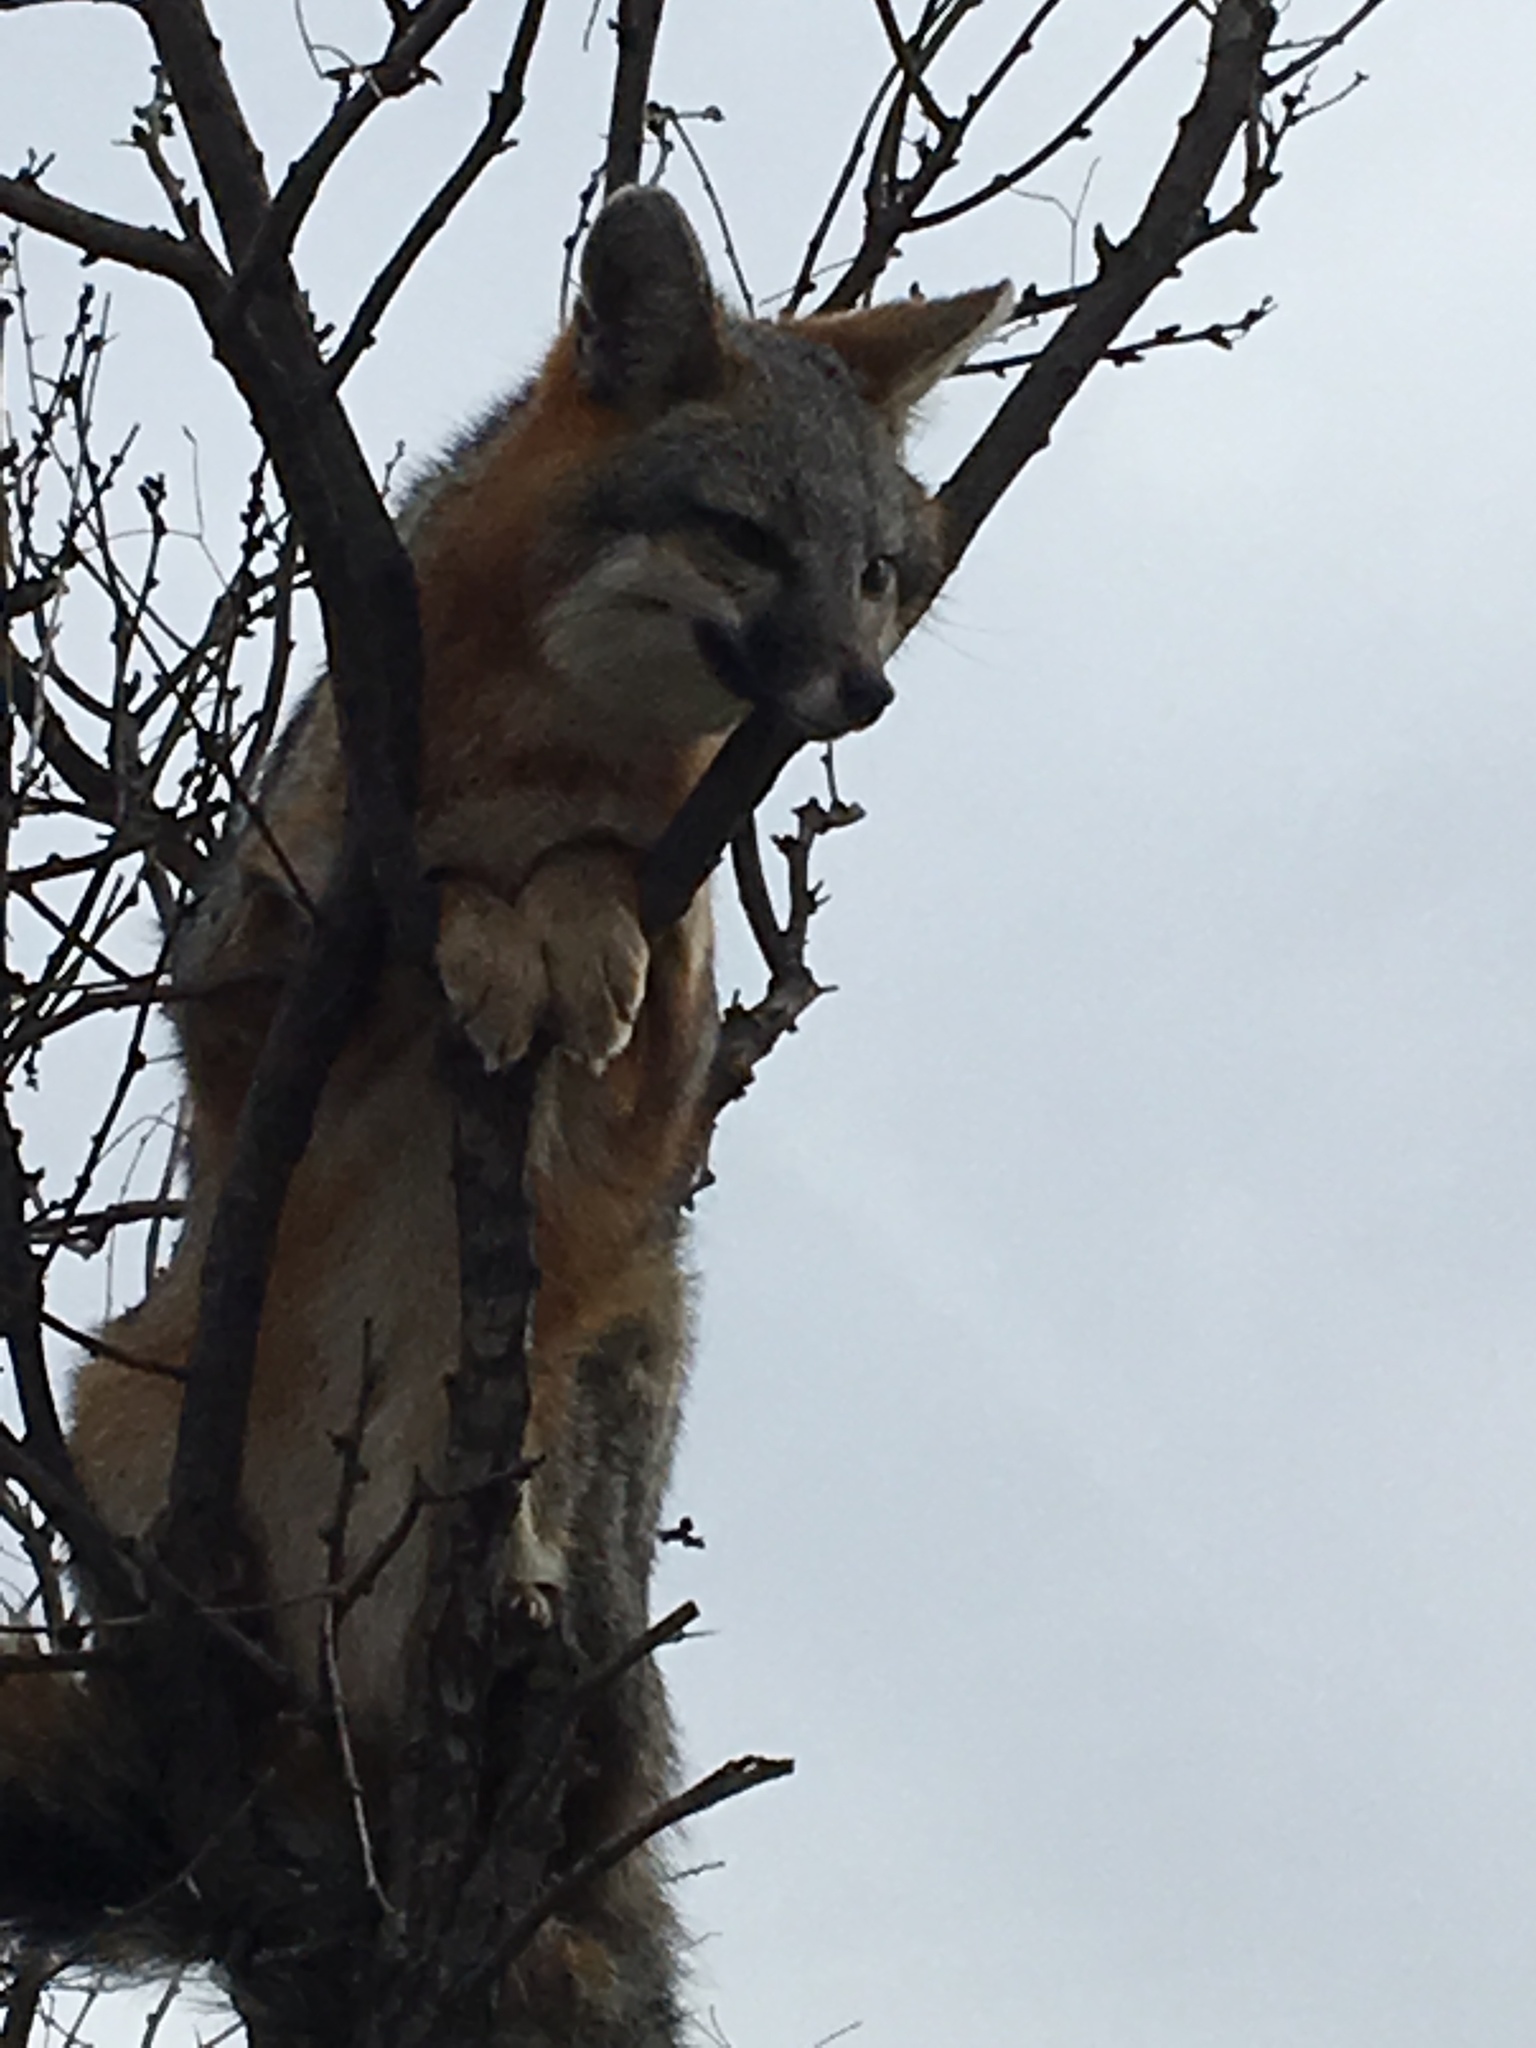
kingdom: Animalia
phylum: Chordata
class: Mammalia
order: Carnivora
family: Canidae
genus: Urocyon
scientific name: Urocyon cinereoargenteus
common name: Gray fox
